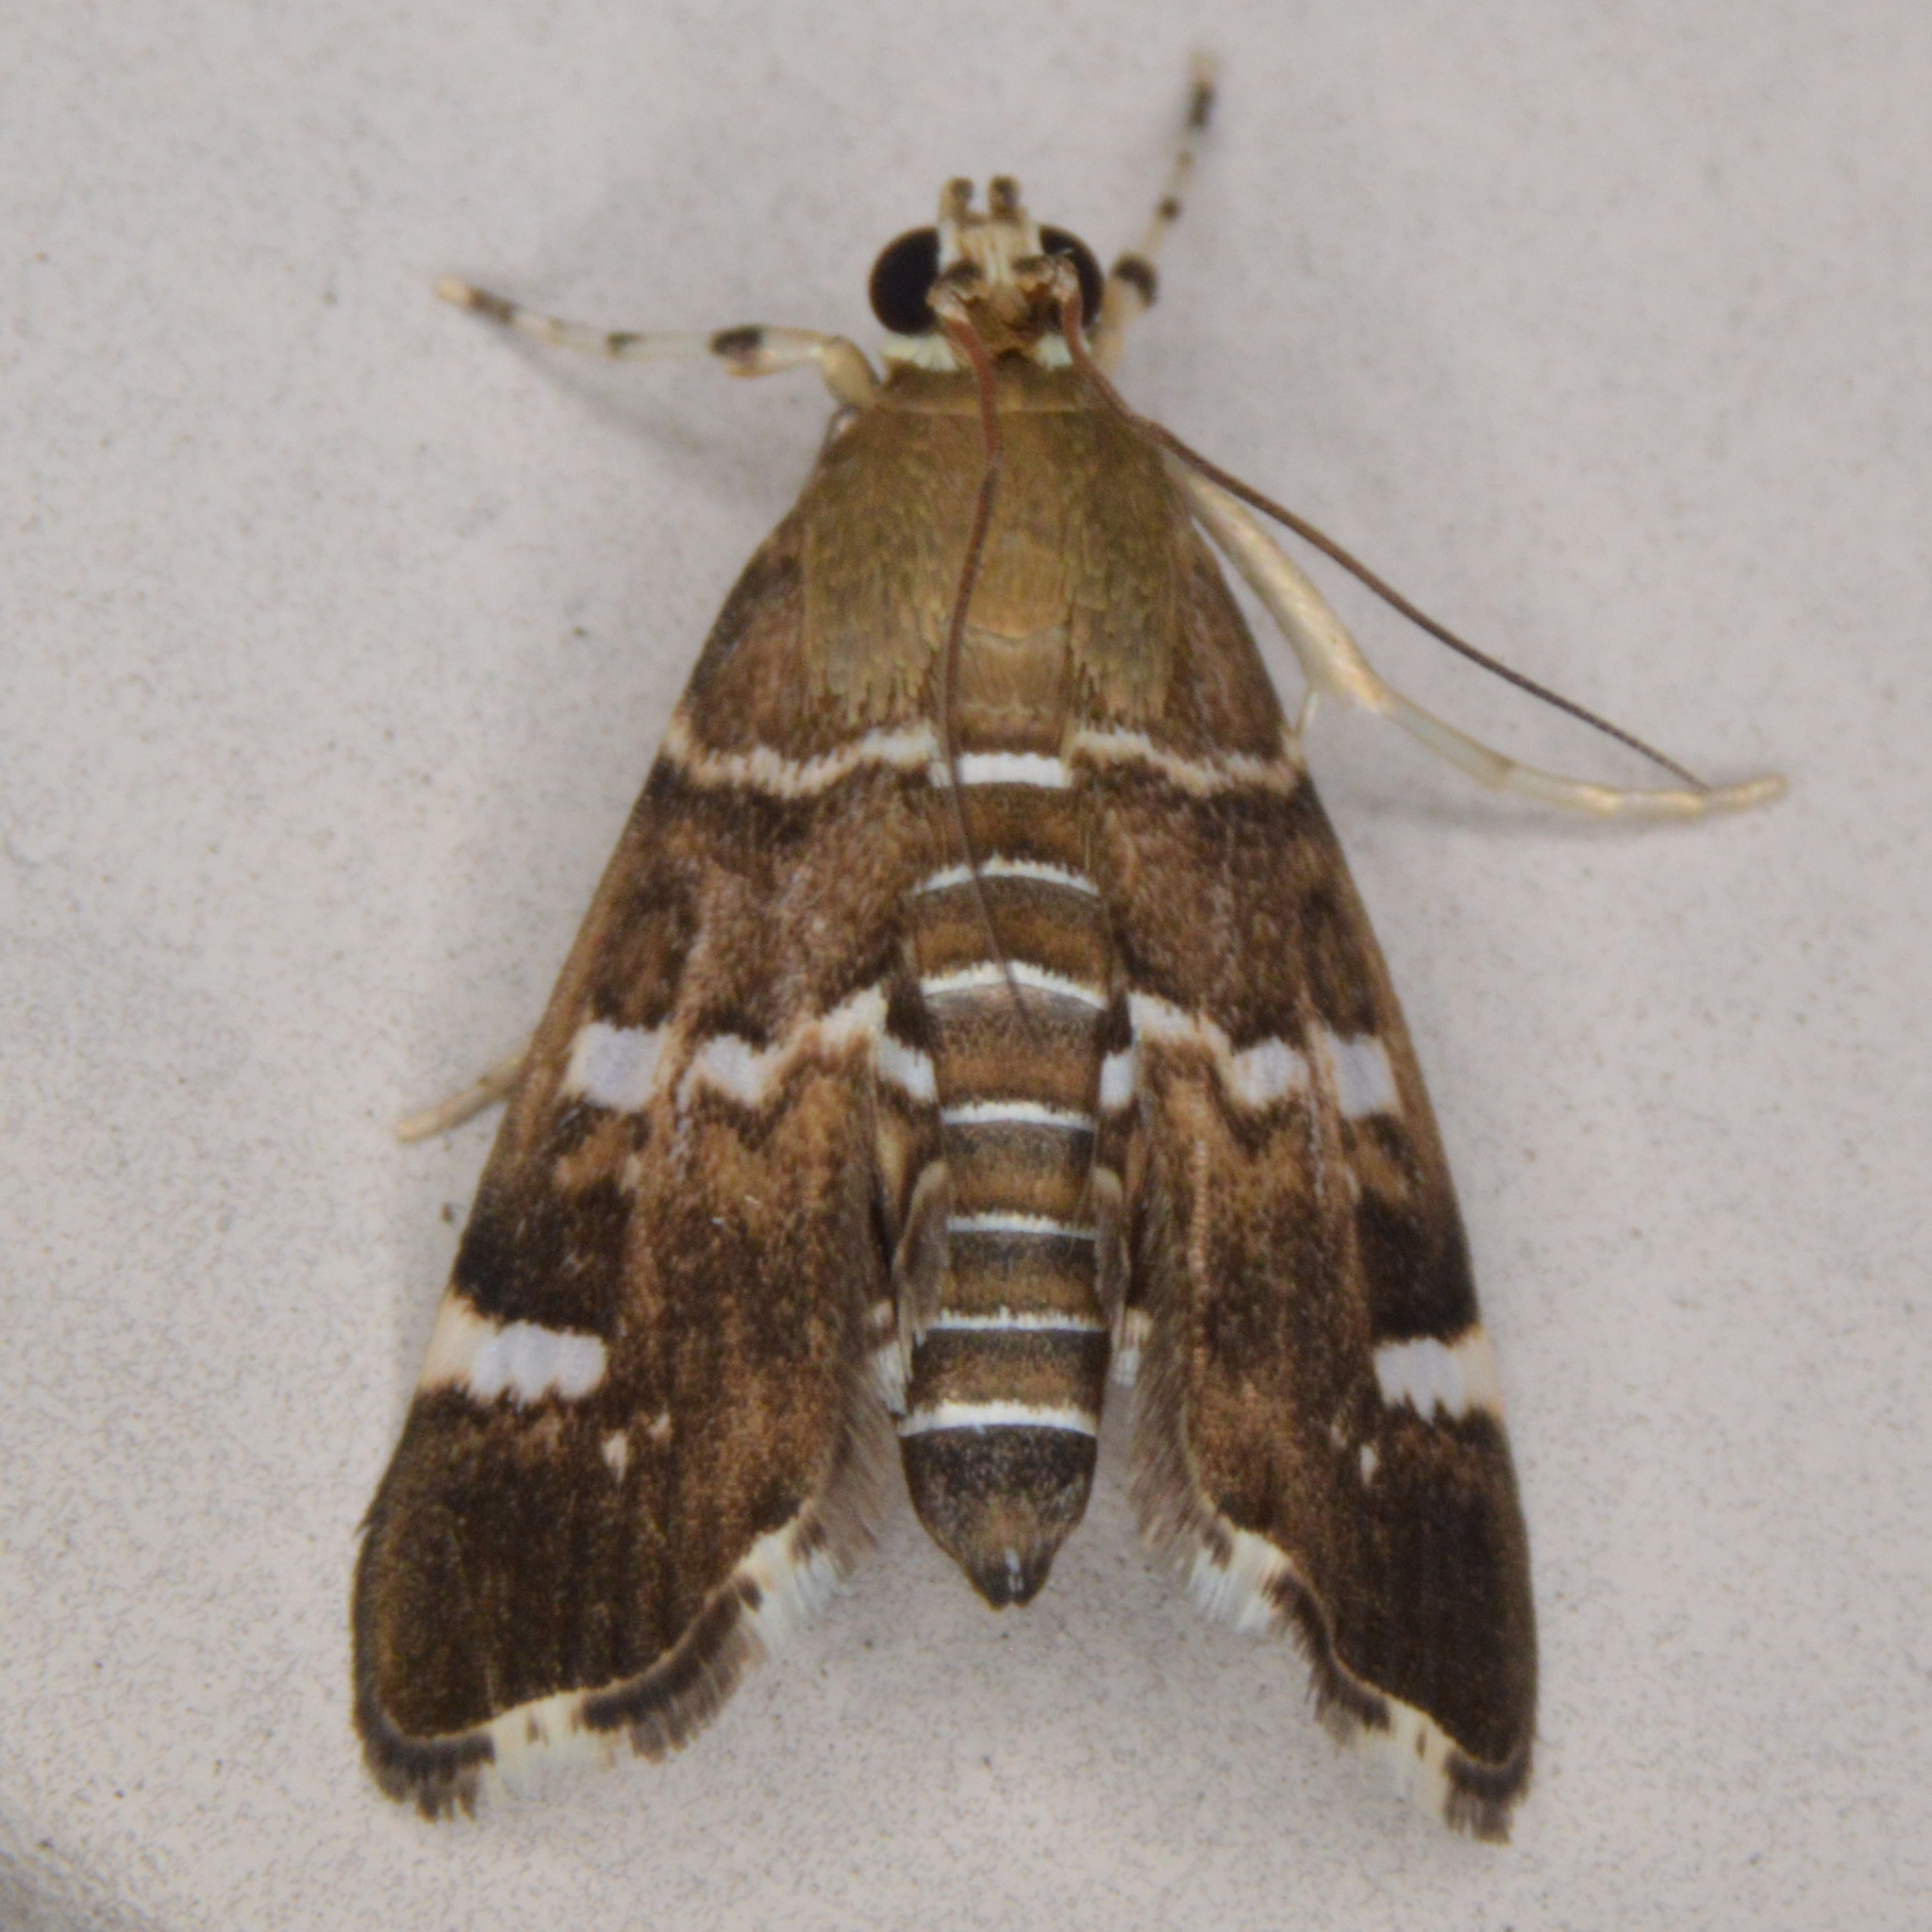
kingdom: Animalia
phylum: Arthropoda
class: Insecta
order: Lepidoptera
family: Crambidae
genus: Hymenia
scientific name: Hymenia perspectalis
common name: Spotted beet webworm
